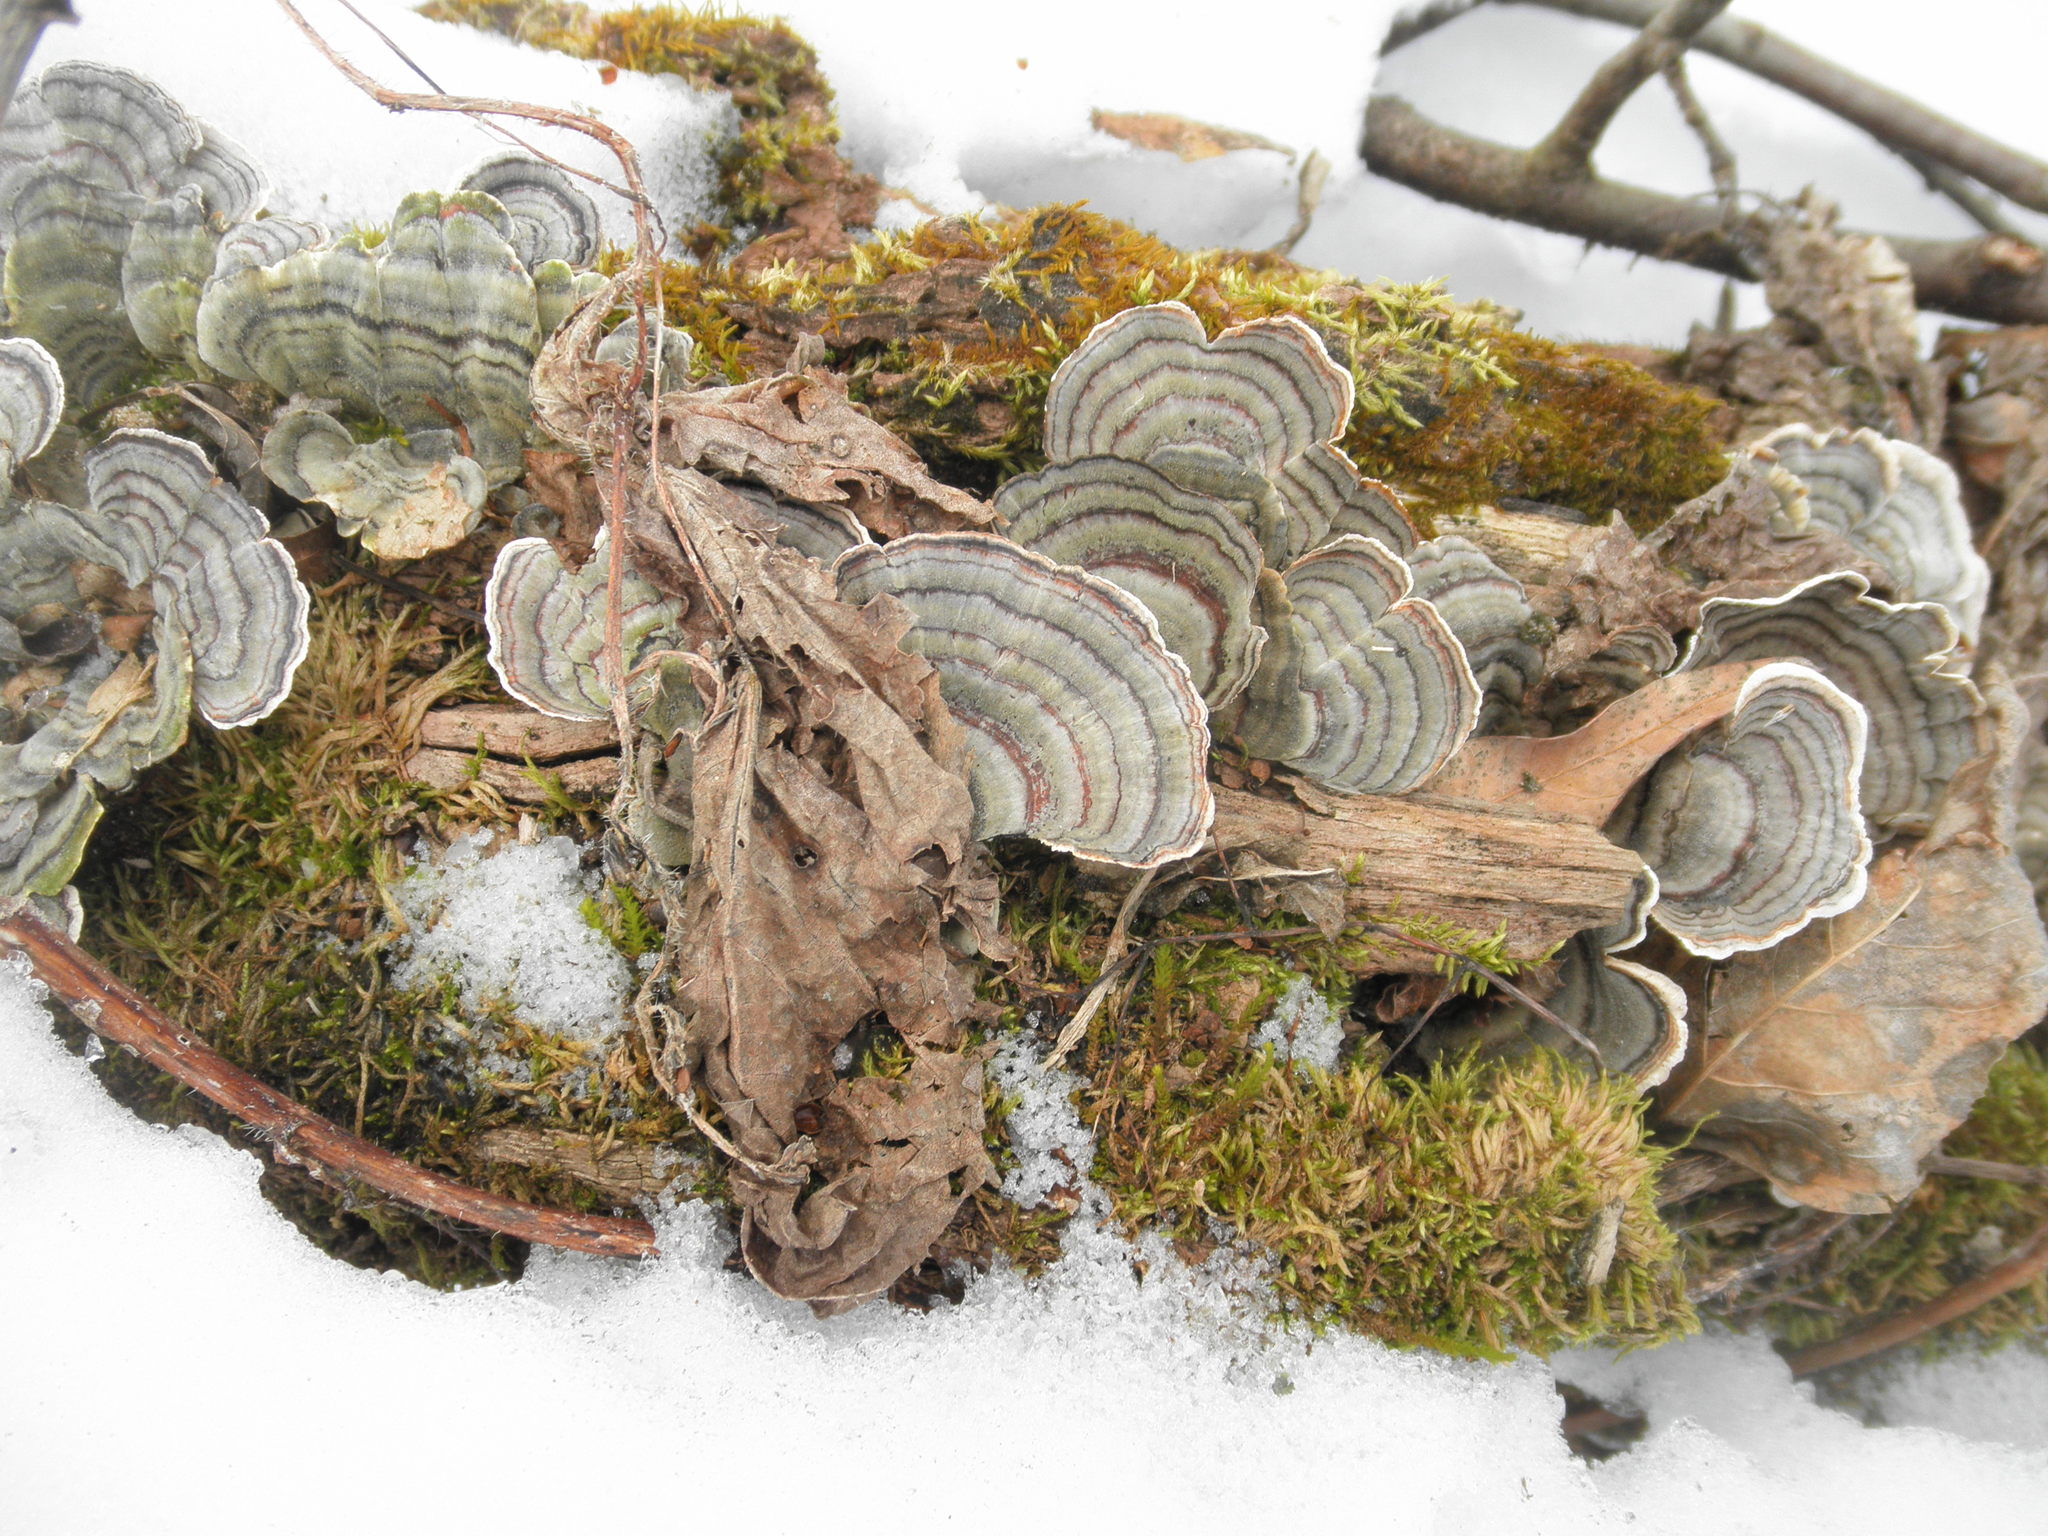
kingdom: Fungi
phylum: Basidiomycota
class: Agaricomycetes
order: Polyporales
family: Polyporaceae
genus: Trametes
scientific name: Trametes versicolor
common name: Turkeytail
